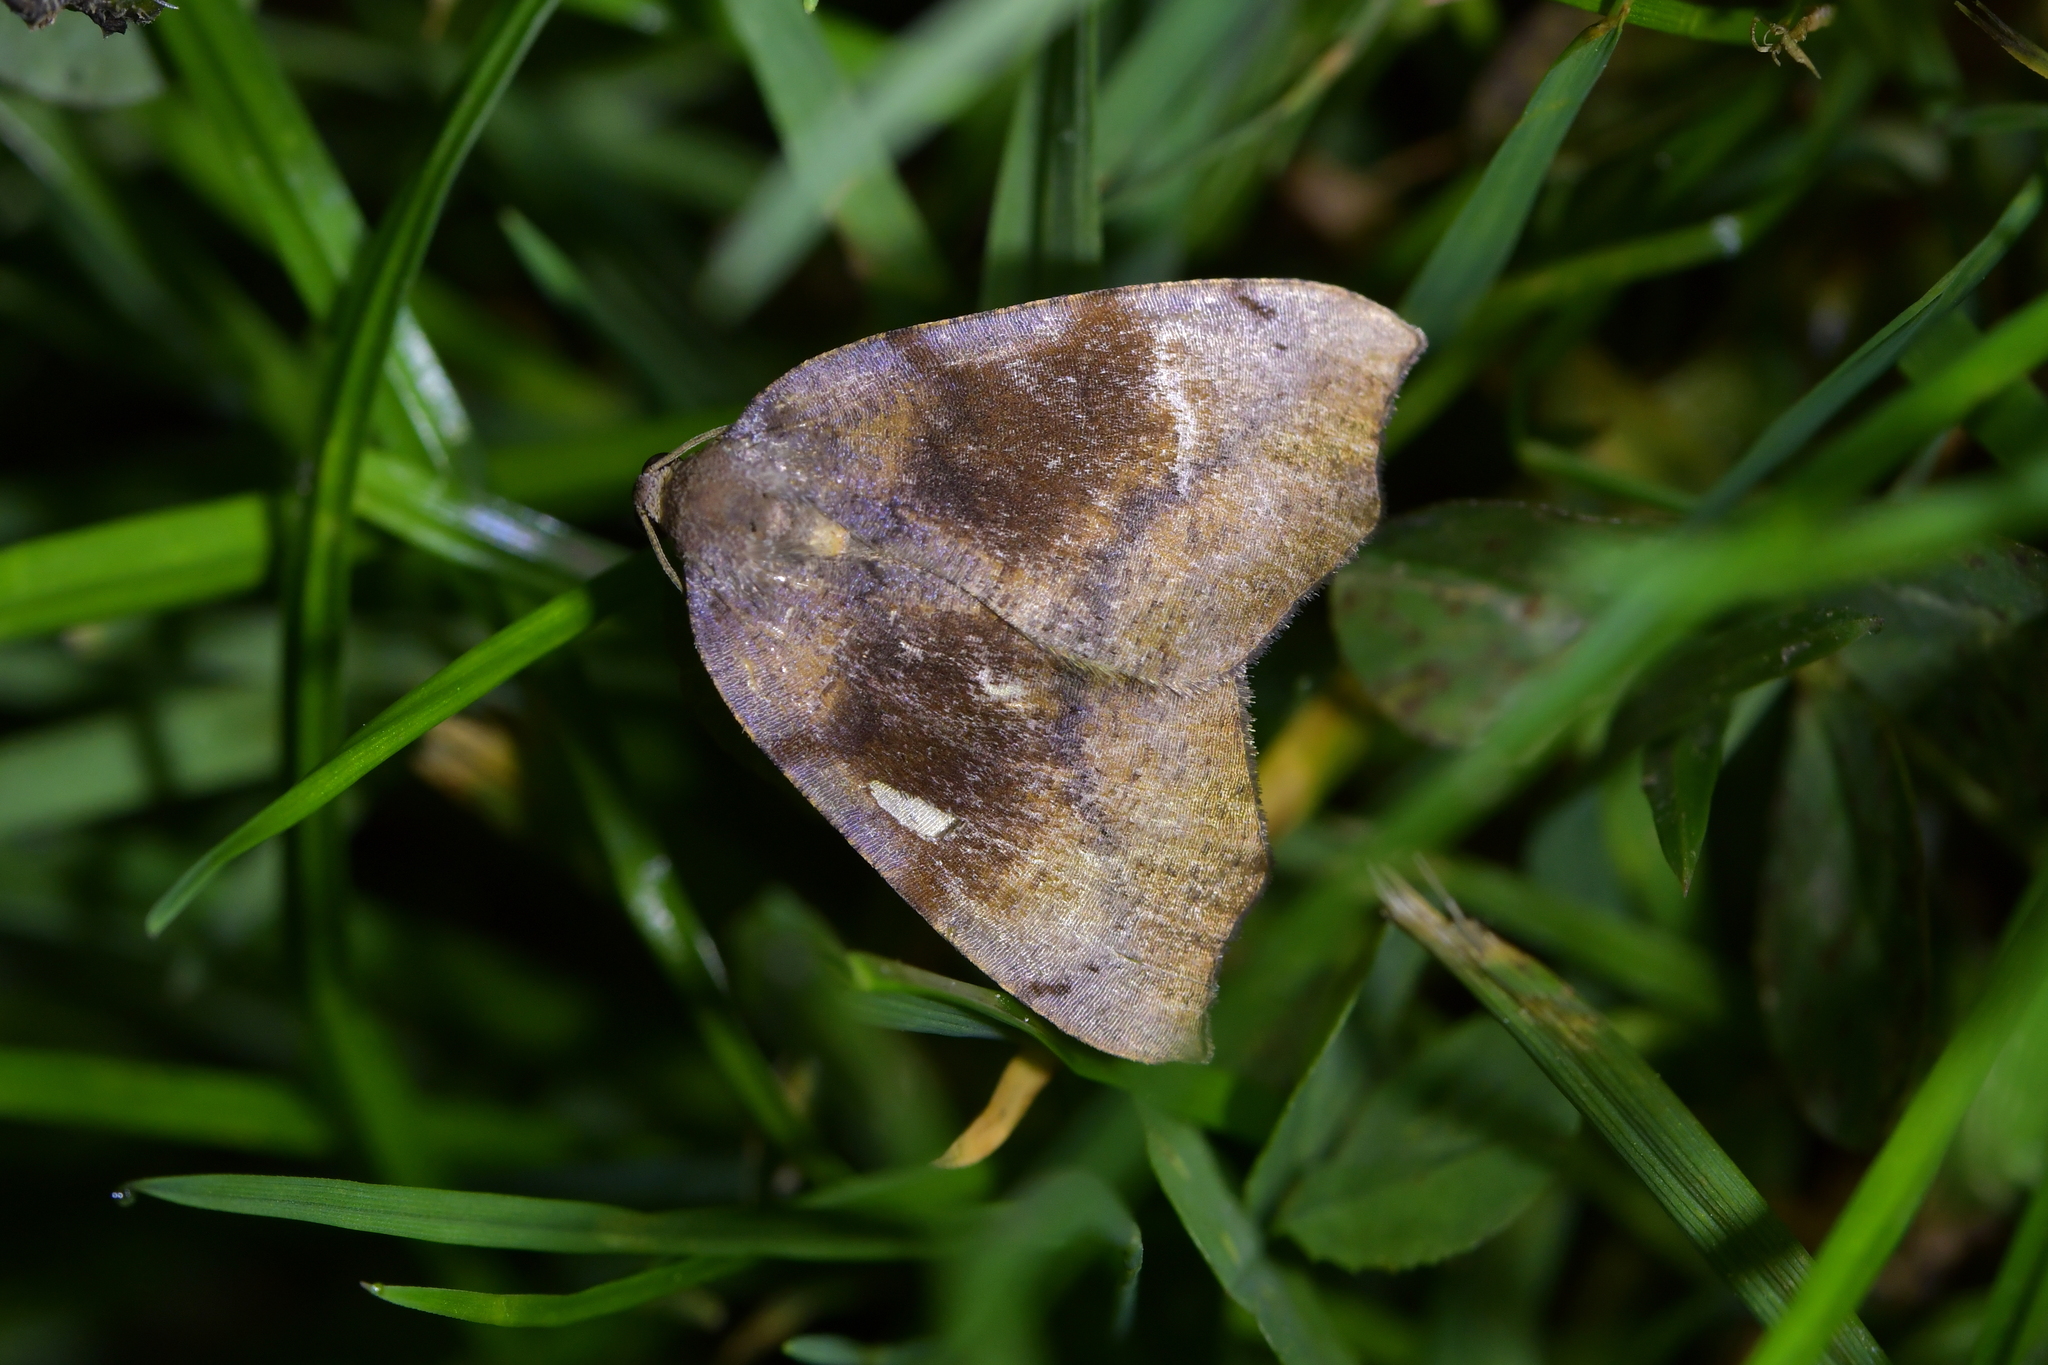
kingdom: Animalia
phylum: Arthropoda
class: Insecta
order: Lepidoptera
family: Geometridae
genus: Sestra
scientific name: Sestra flexata
